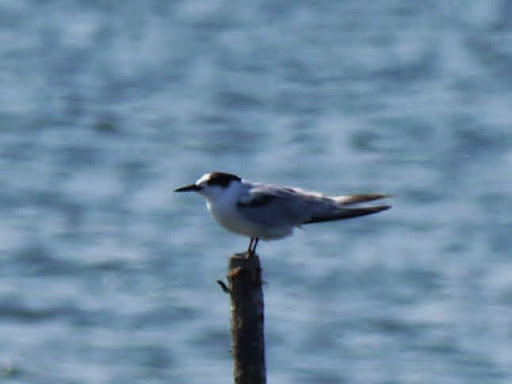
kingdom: Animalia
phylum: Chordata
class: Aves
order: Charadriiformes
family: Laridae
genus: Sterna
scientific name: Sterna hirundo
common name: Common tern
